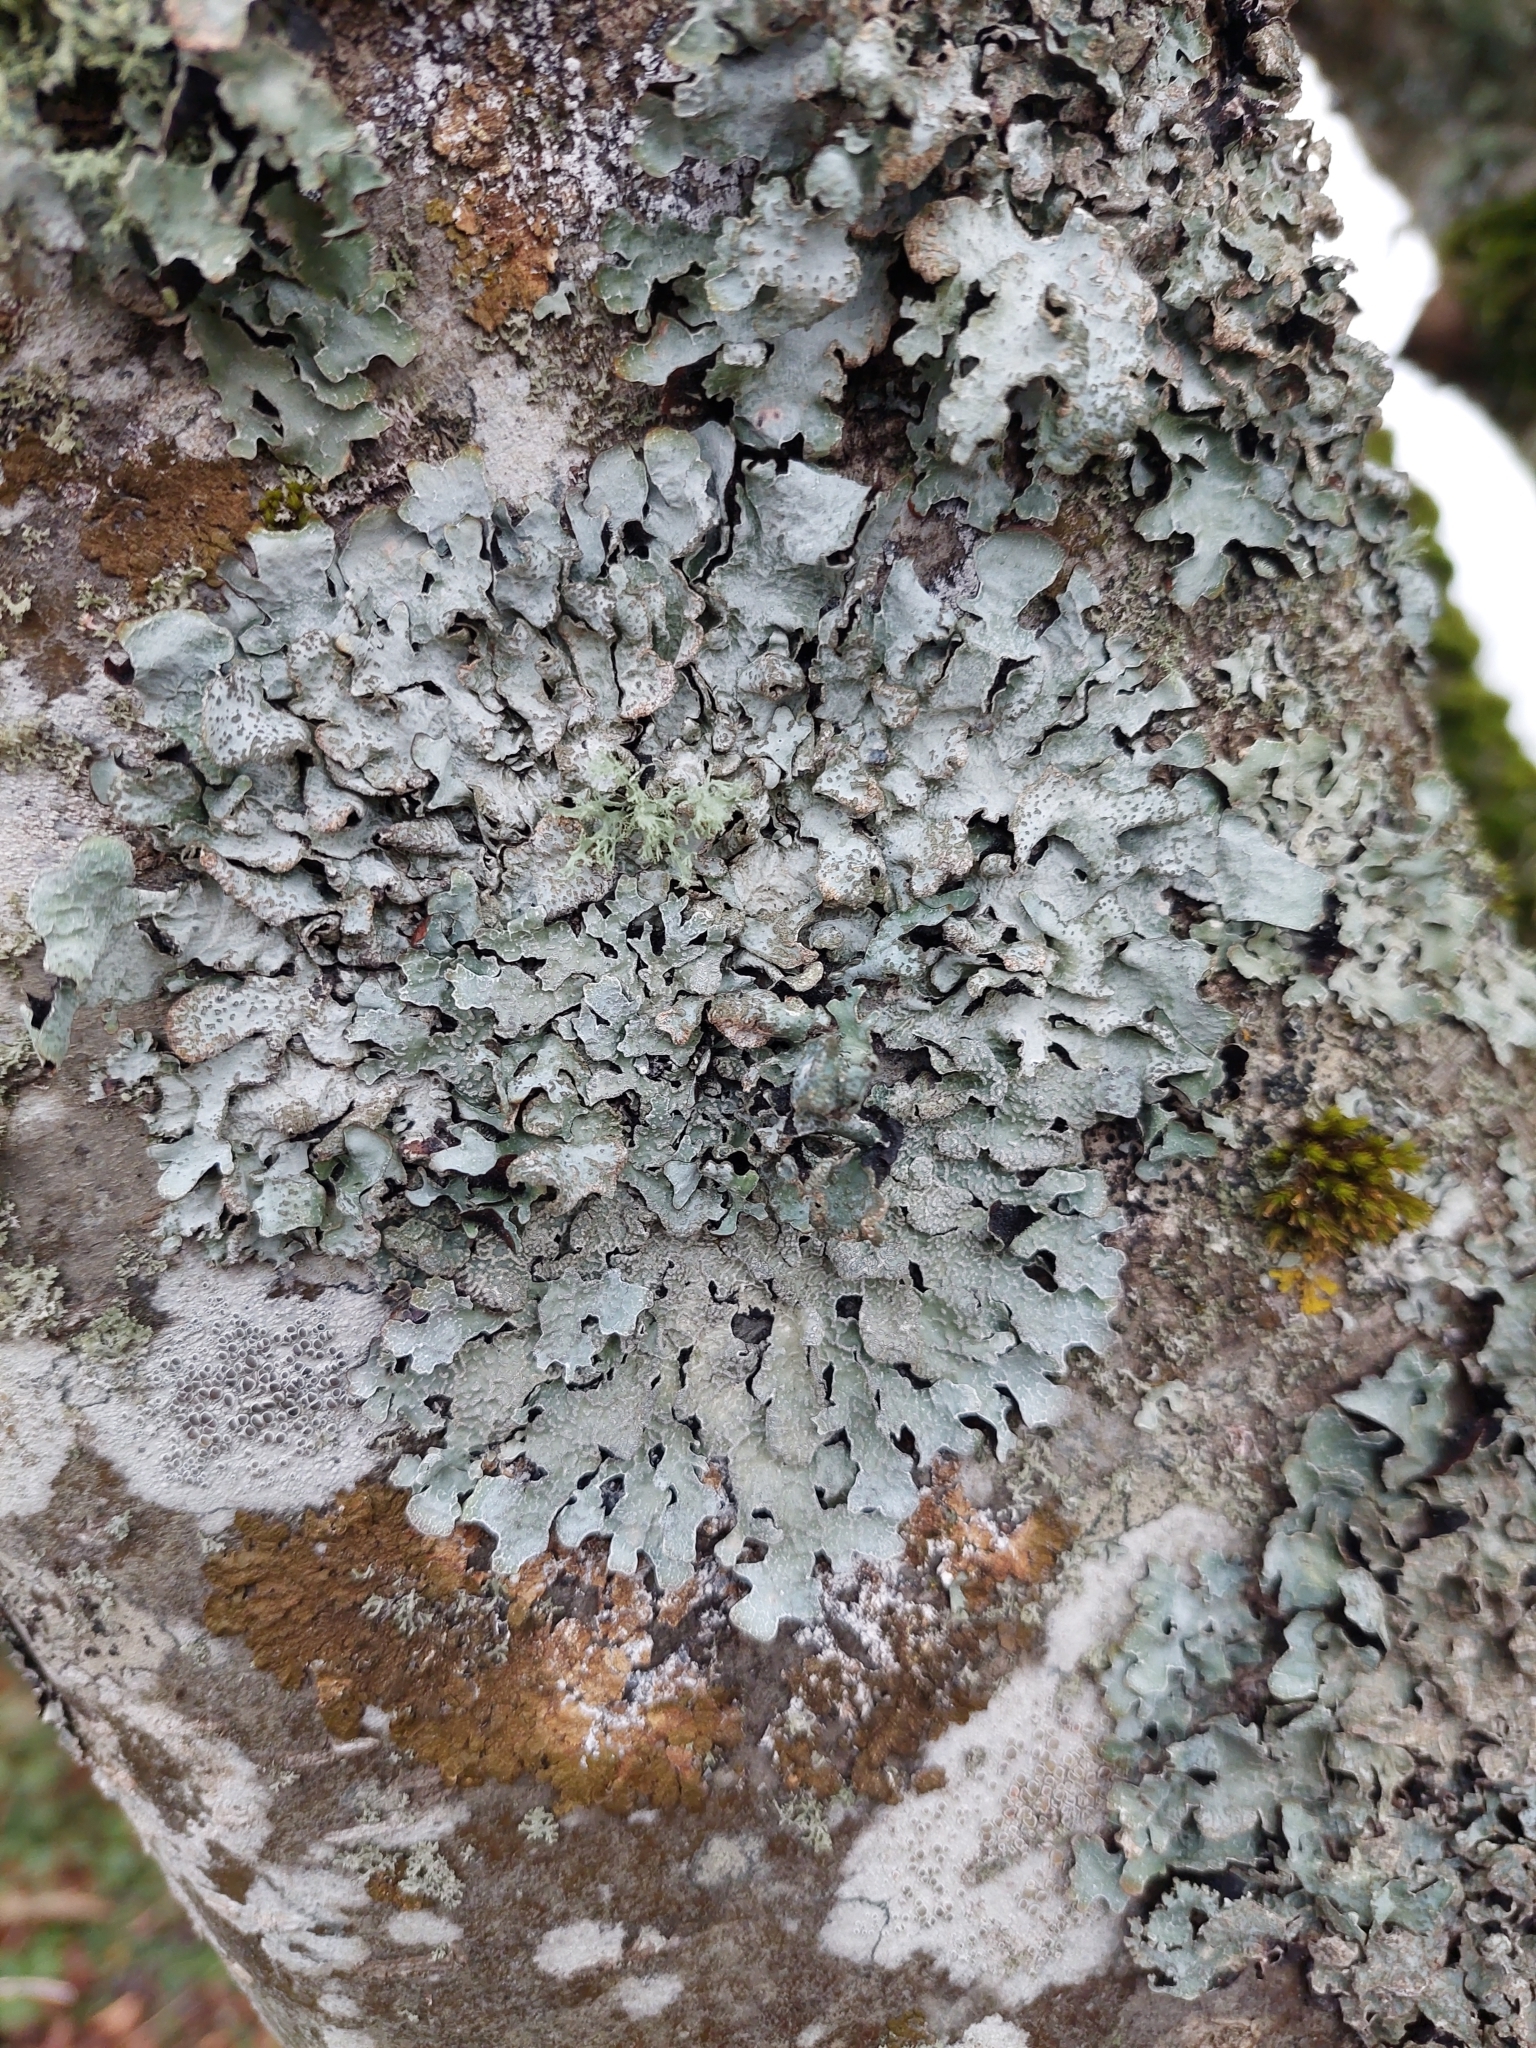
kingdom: Fungi
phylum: Ascomycota
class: Lecanoromycetes
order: Lecanorales
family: Parmeliaceae
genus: Parmelia
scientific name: Parmelia sulcata
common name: Netted shield lichen
